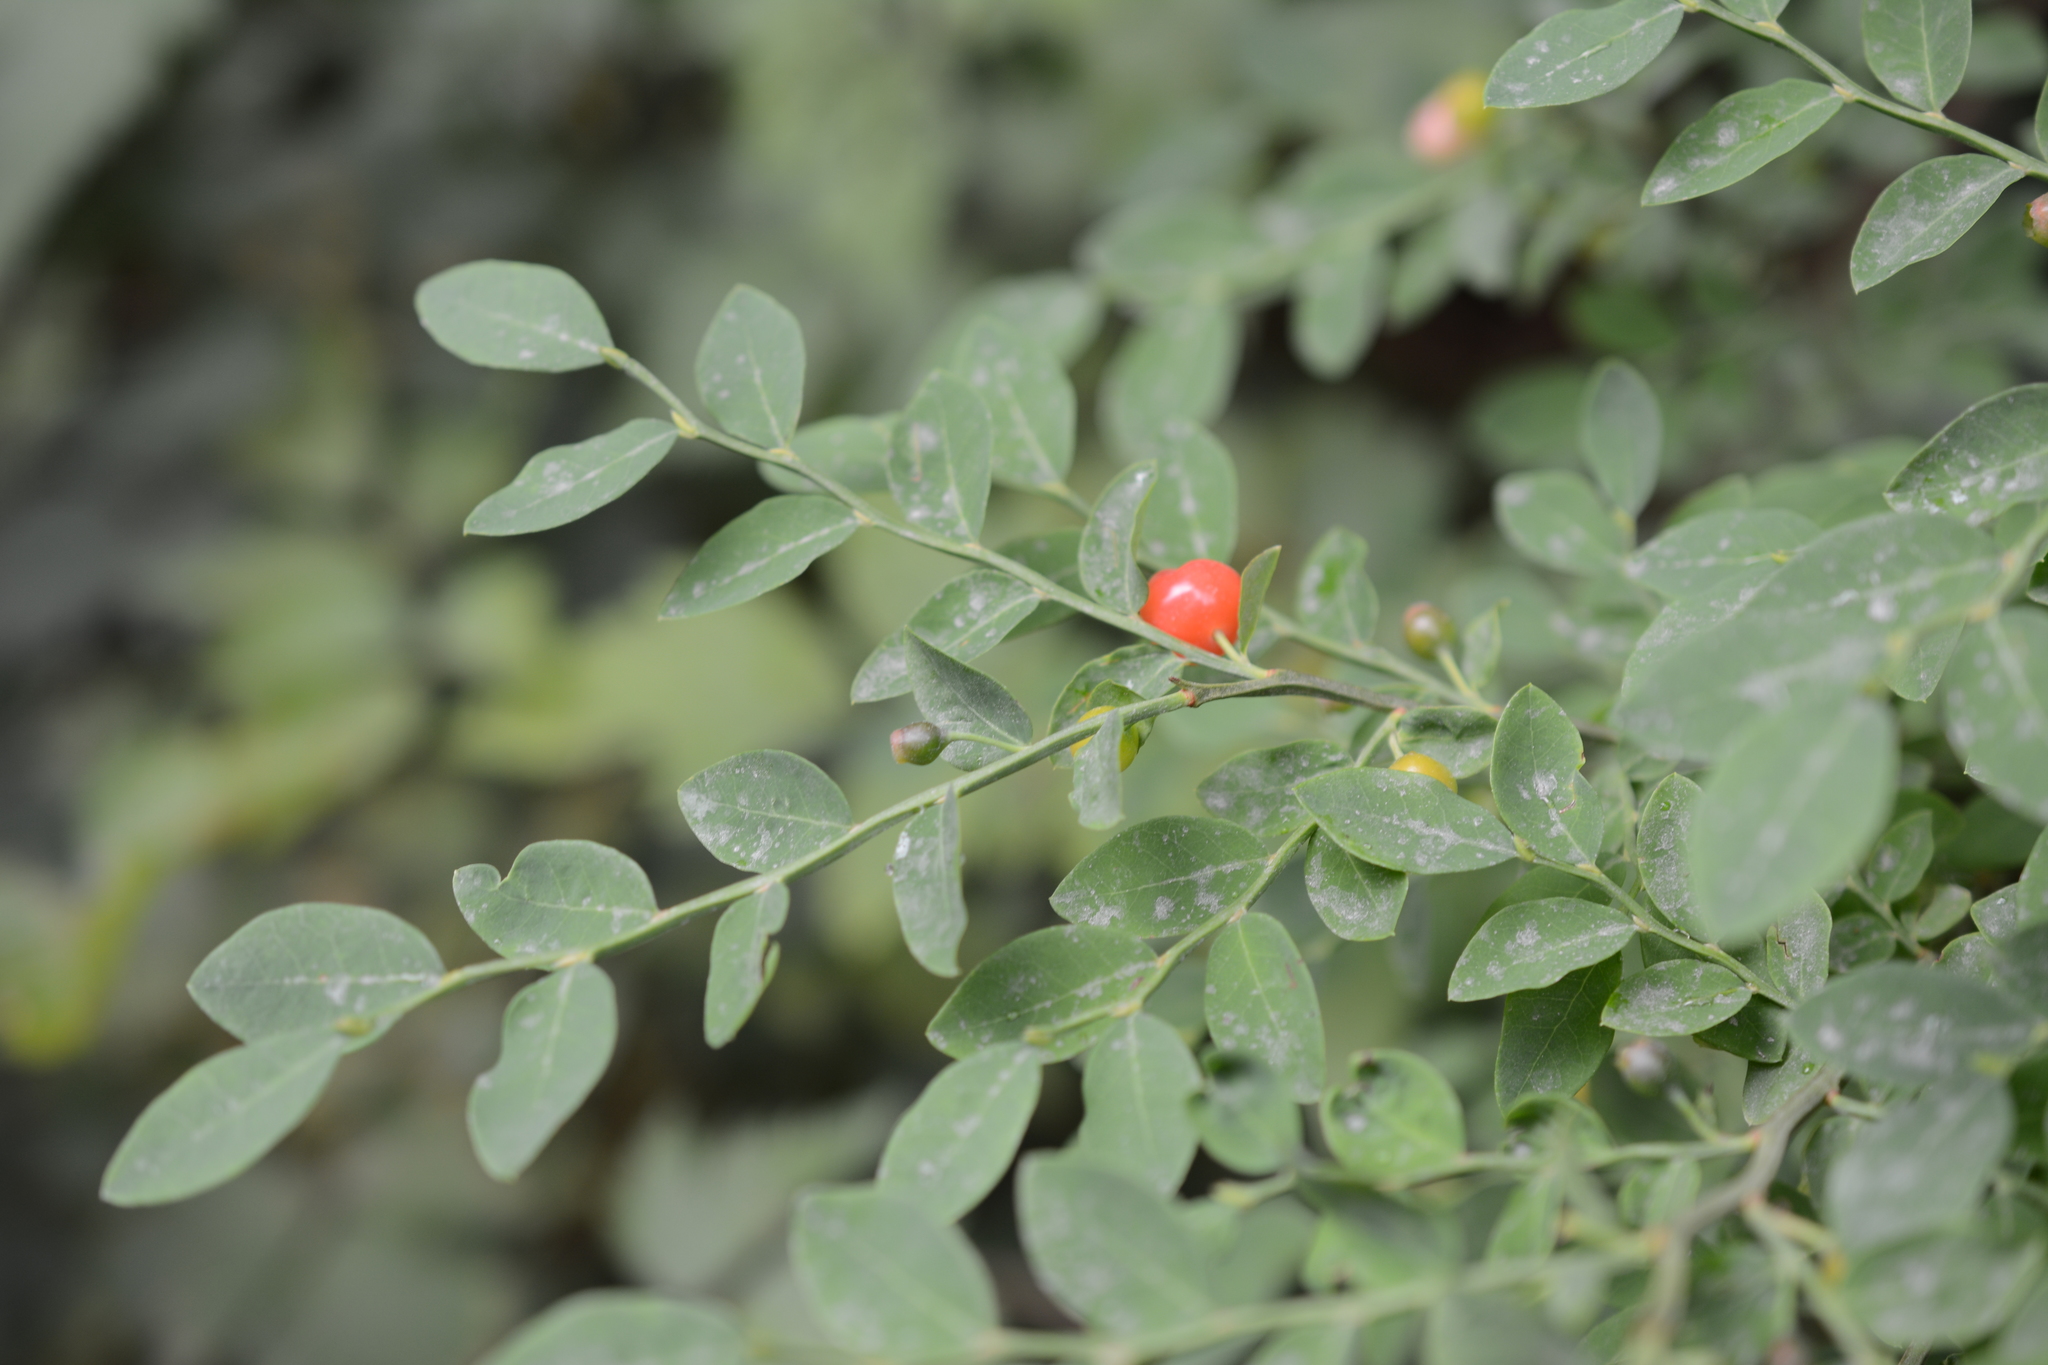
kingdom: Plantae
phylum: Tracheophyta
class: Magnoliopsida
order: Ericales
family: Ericaceae
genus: Vaccinium
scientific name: Vaccinium parvifolium
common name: Red-huckleberry
